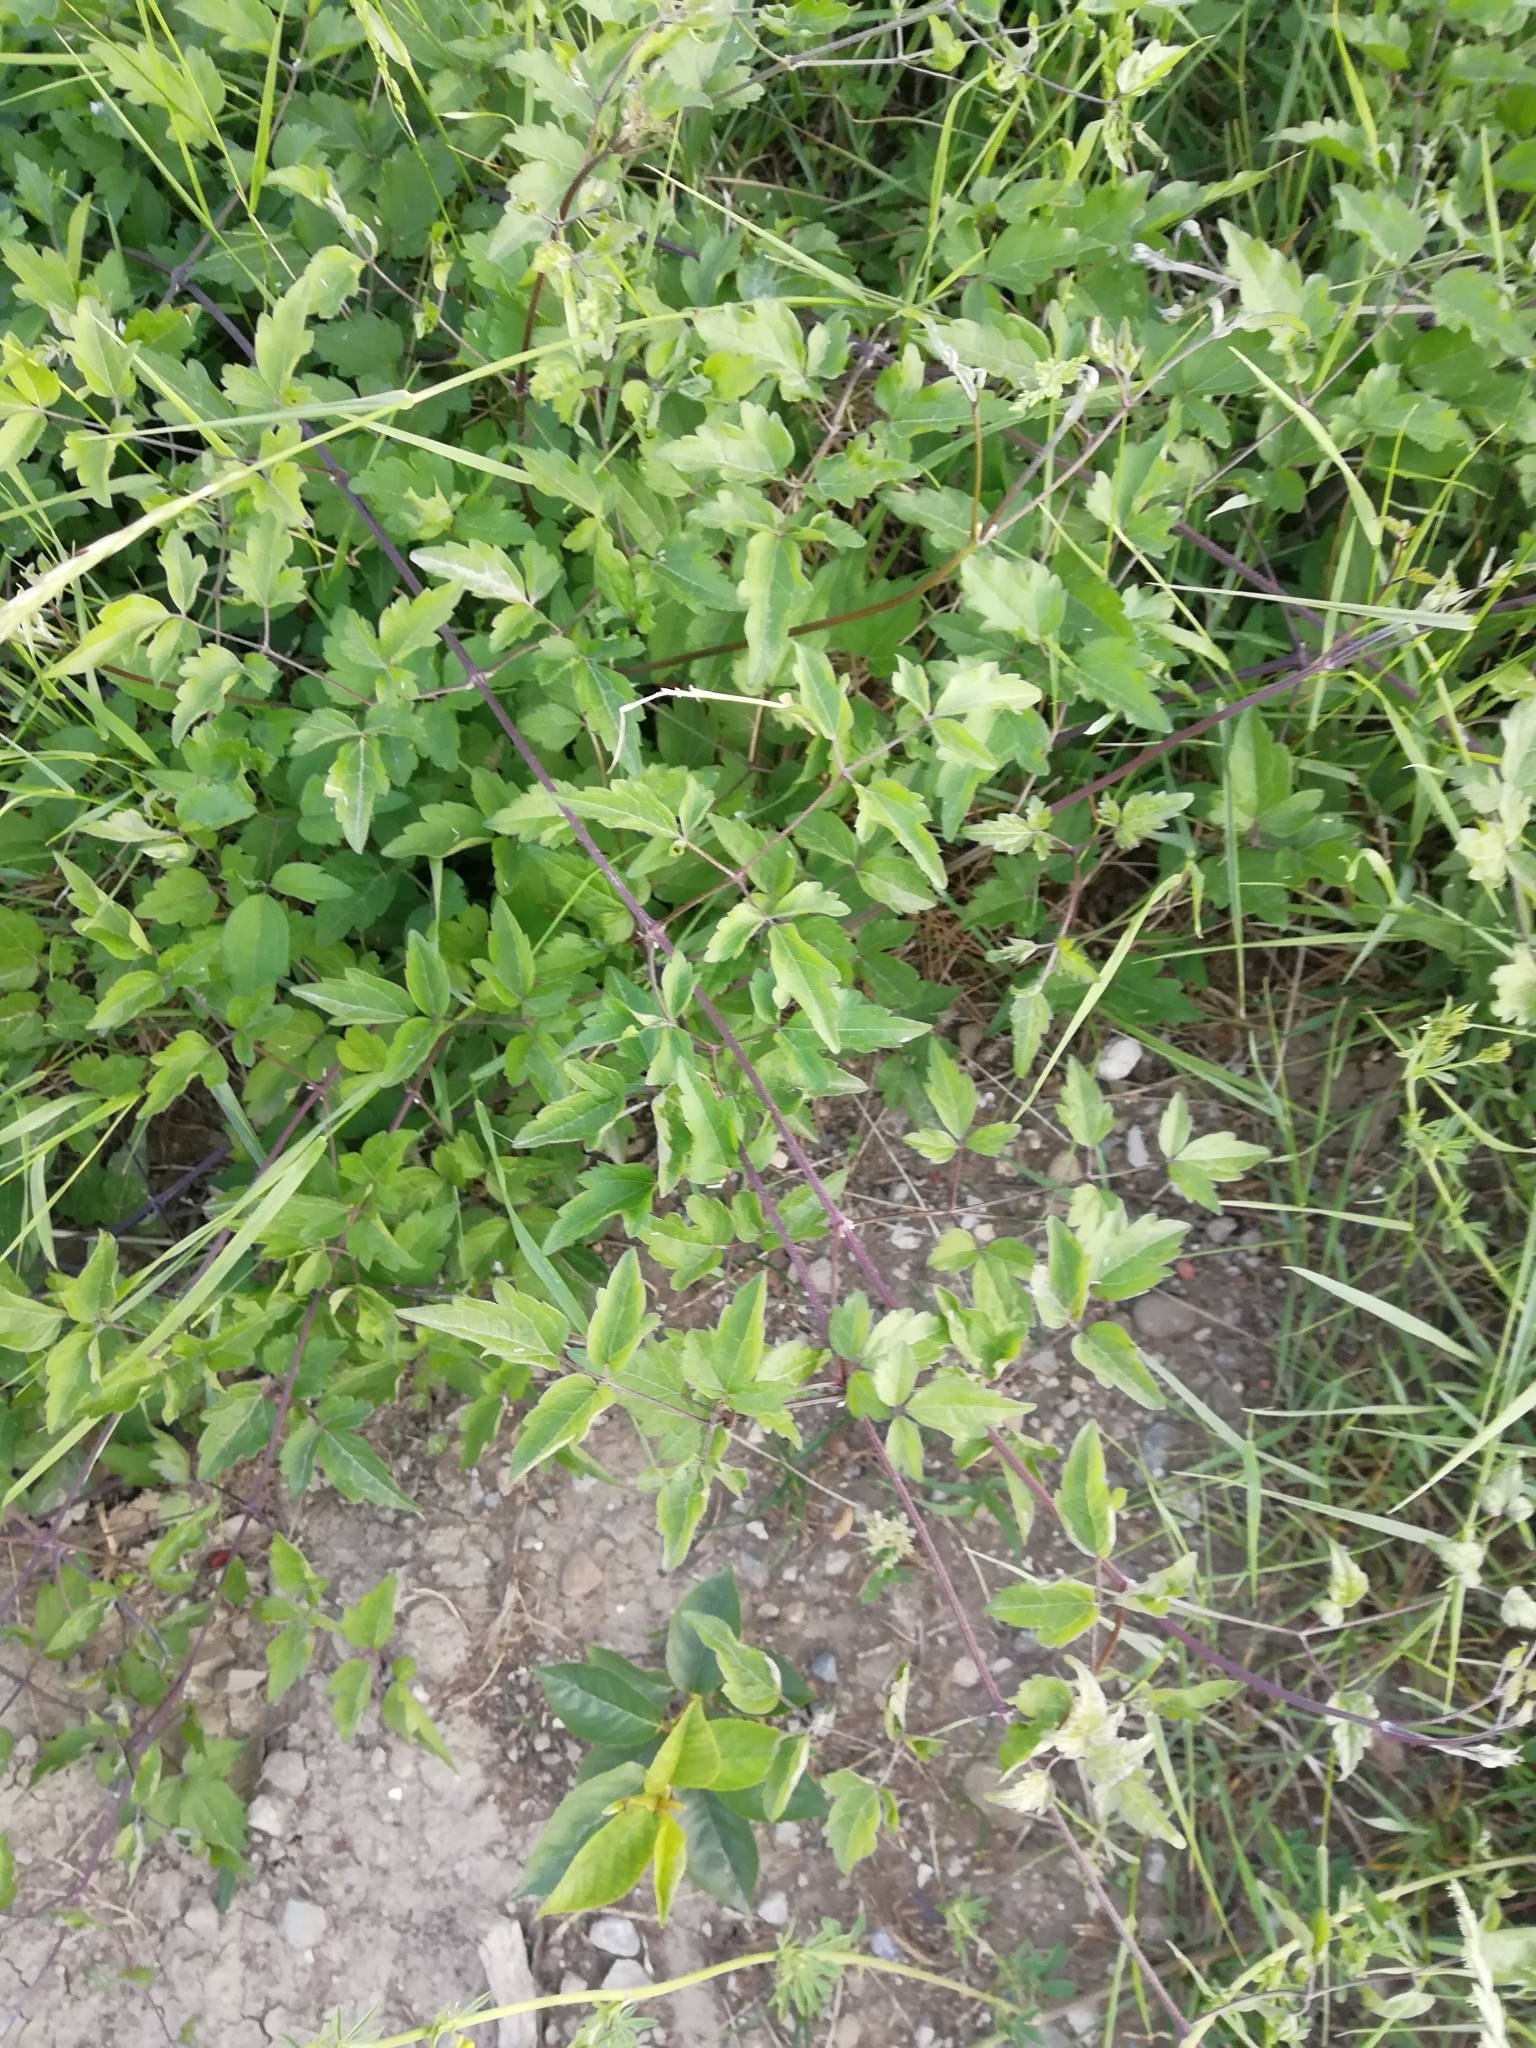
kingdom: Plantae
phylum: Tracheophyta
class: Magnoliopsida
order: Ranunculales
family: Ranunculaceae
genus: Clematis
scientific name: Clematis vitalba
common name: Evergreen clematis
